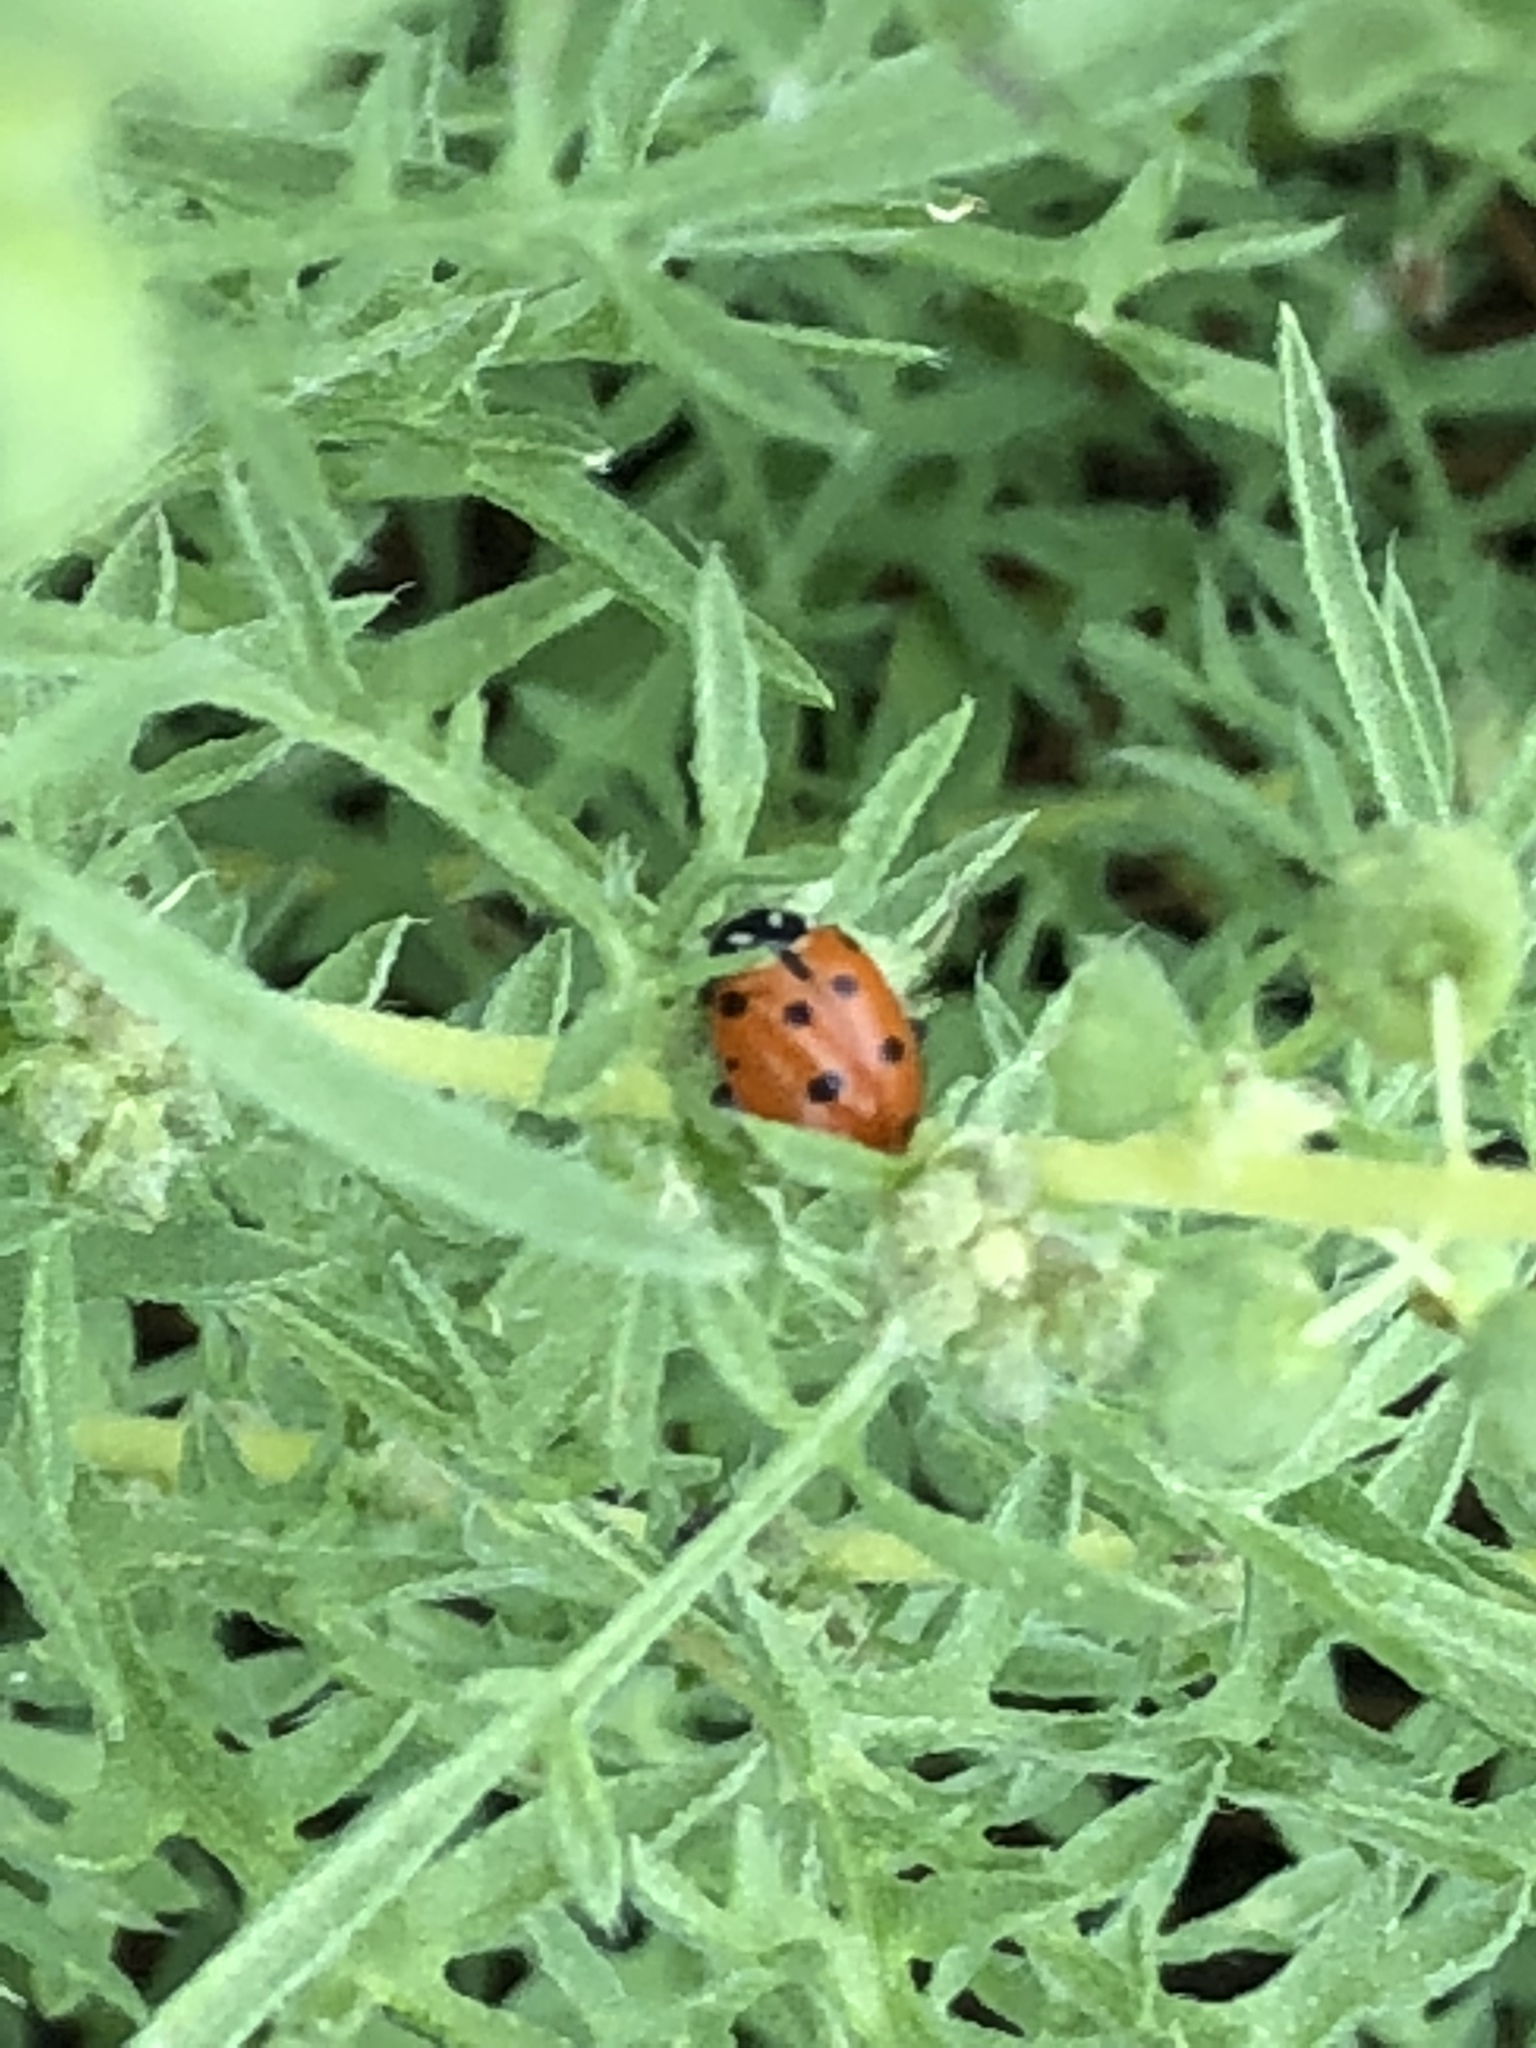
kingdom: Animalia
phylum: Arthropoda
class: Insecta
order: Coleoptera
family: Coccinellidae
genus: Hippodamia
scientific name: Hippodamia convergens
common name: Convergent lady beetle
